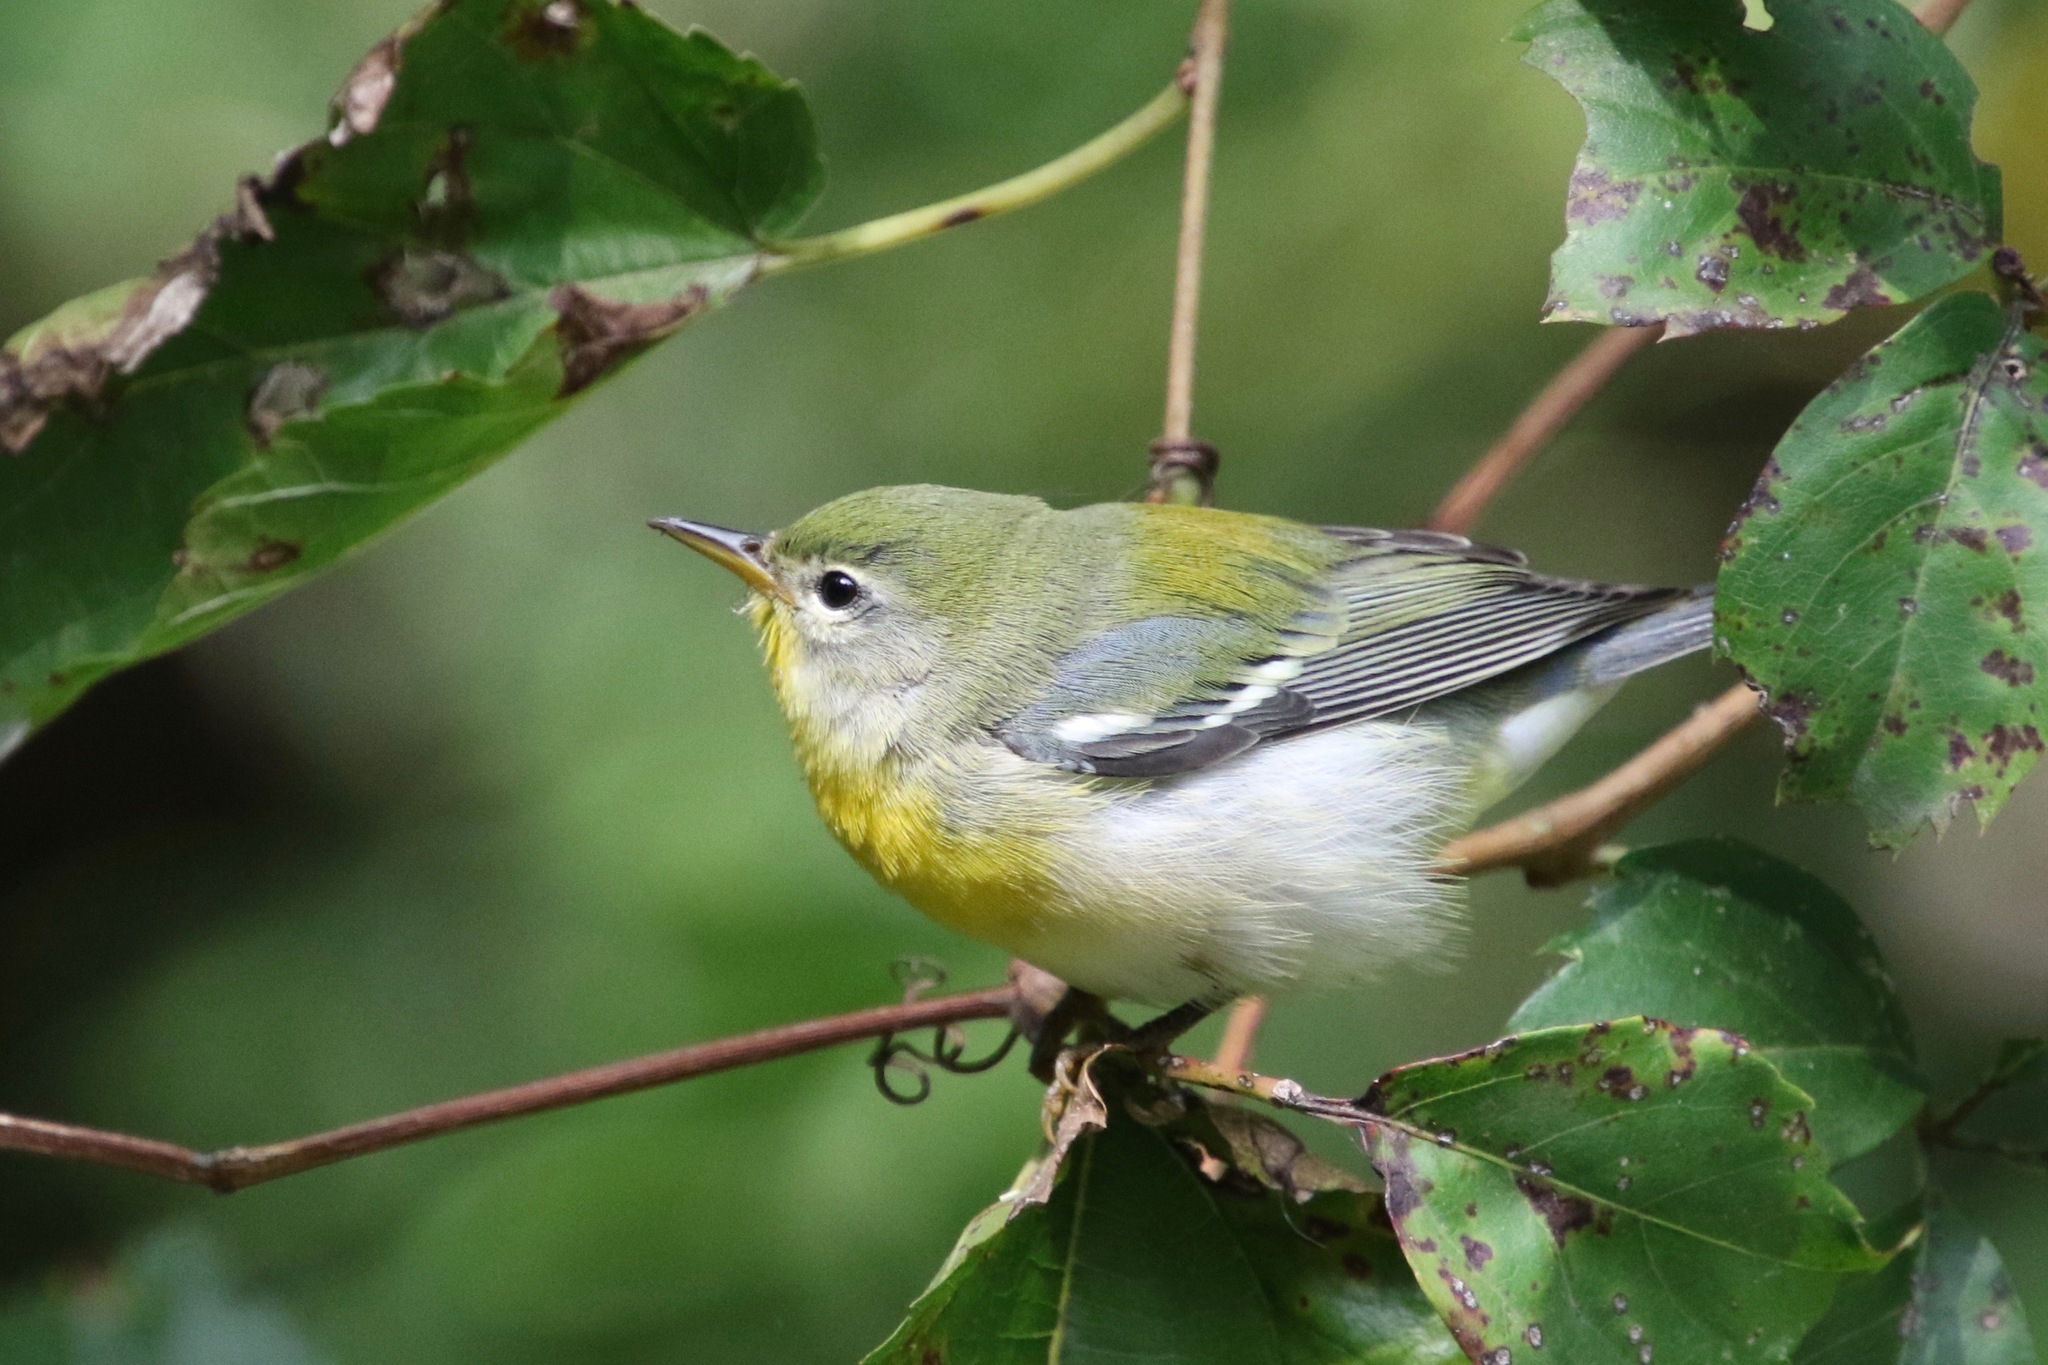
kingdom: Animalia
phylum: Chordata
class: Aves
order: Passeriformes
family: Parulidae
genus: Setophaga
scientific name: Setophaga americana
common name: Northern parula
